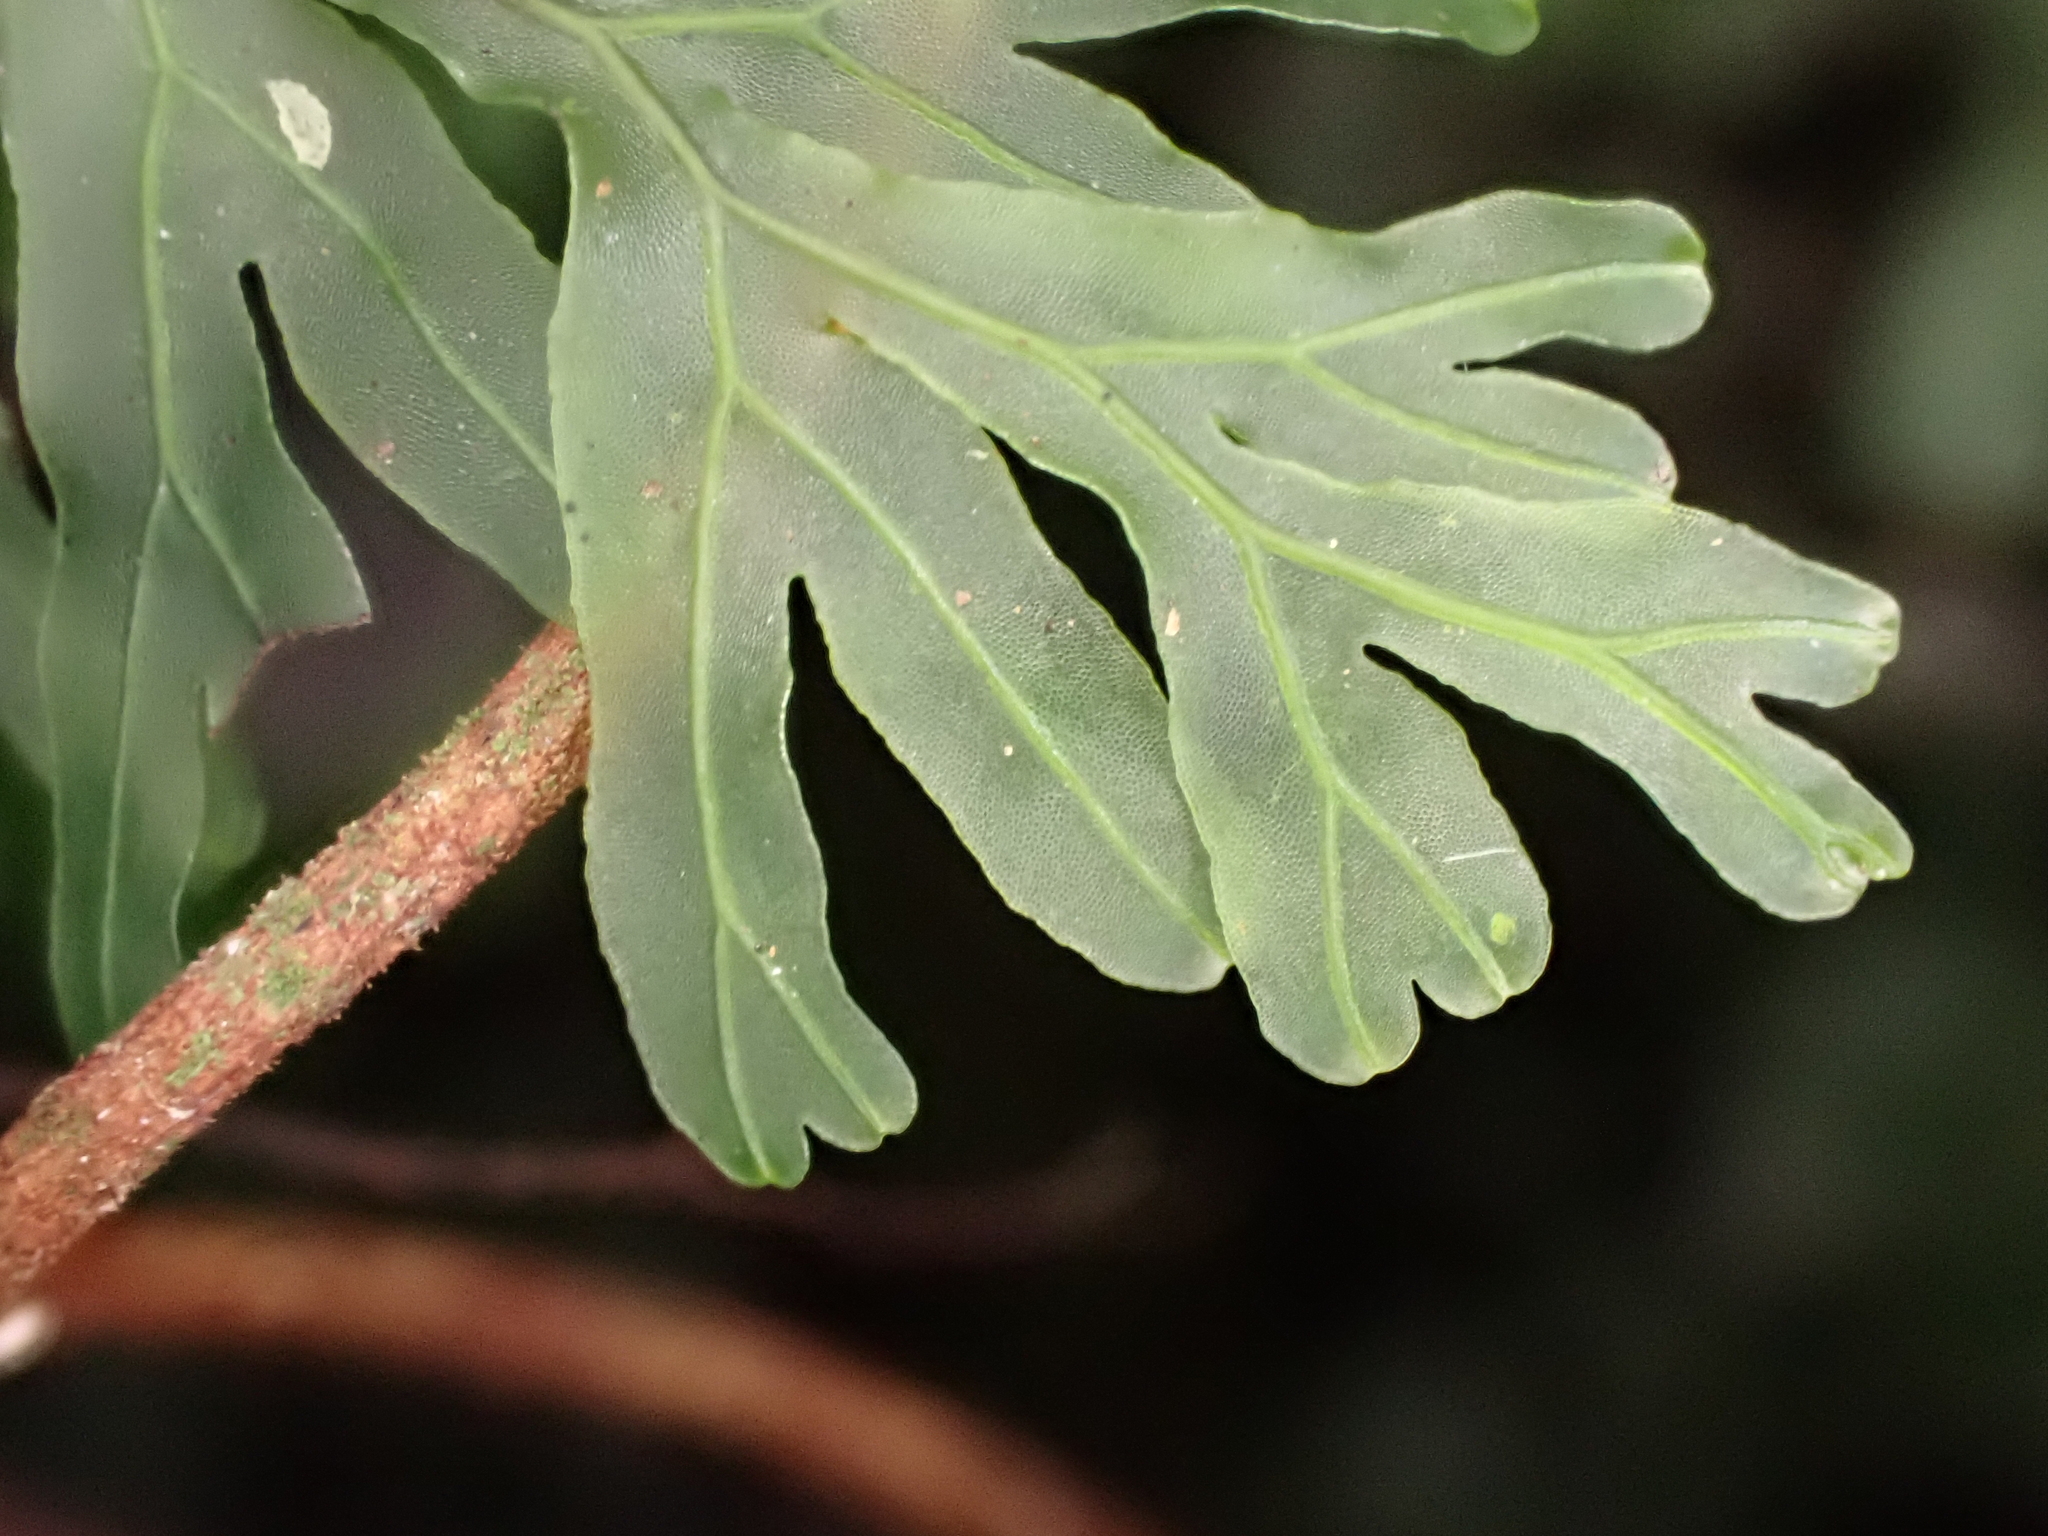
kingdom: Plantae
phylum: Tracheophyta
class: Polypodiopsida
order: Hymenophyllales
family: Hymenophyllaceae
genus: Hymenophyllum
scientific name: Hymenophyllum rarum
